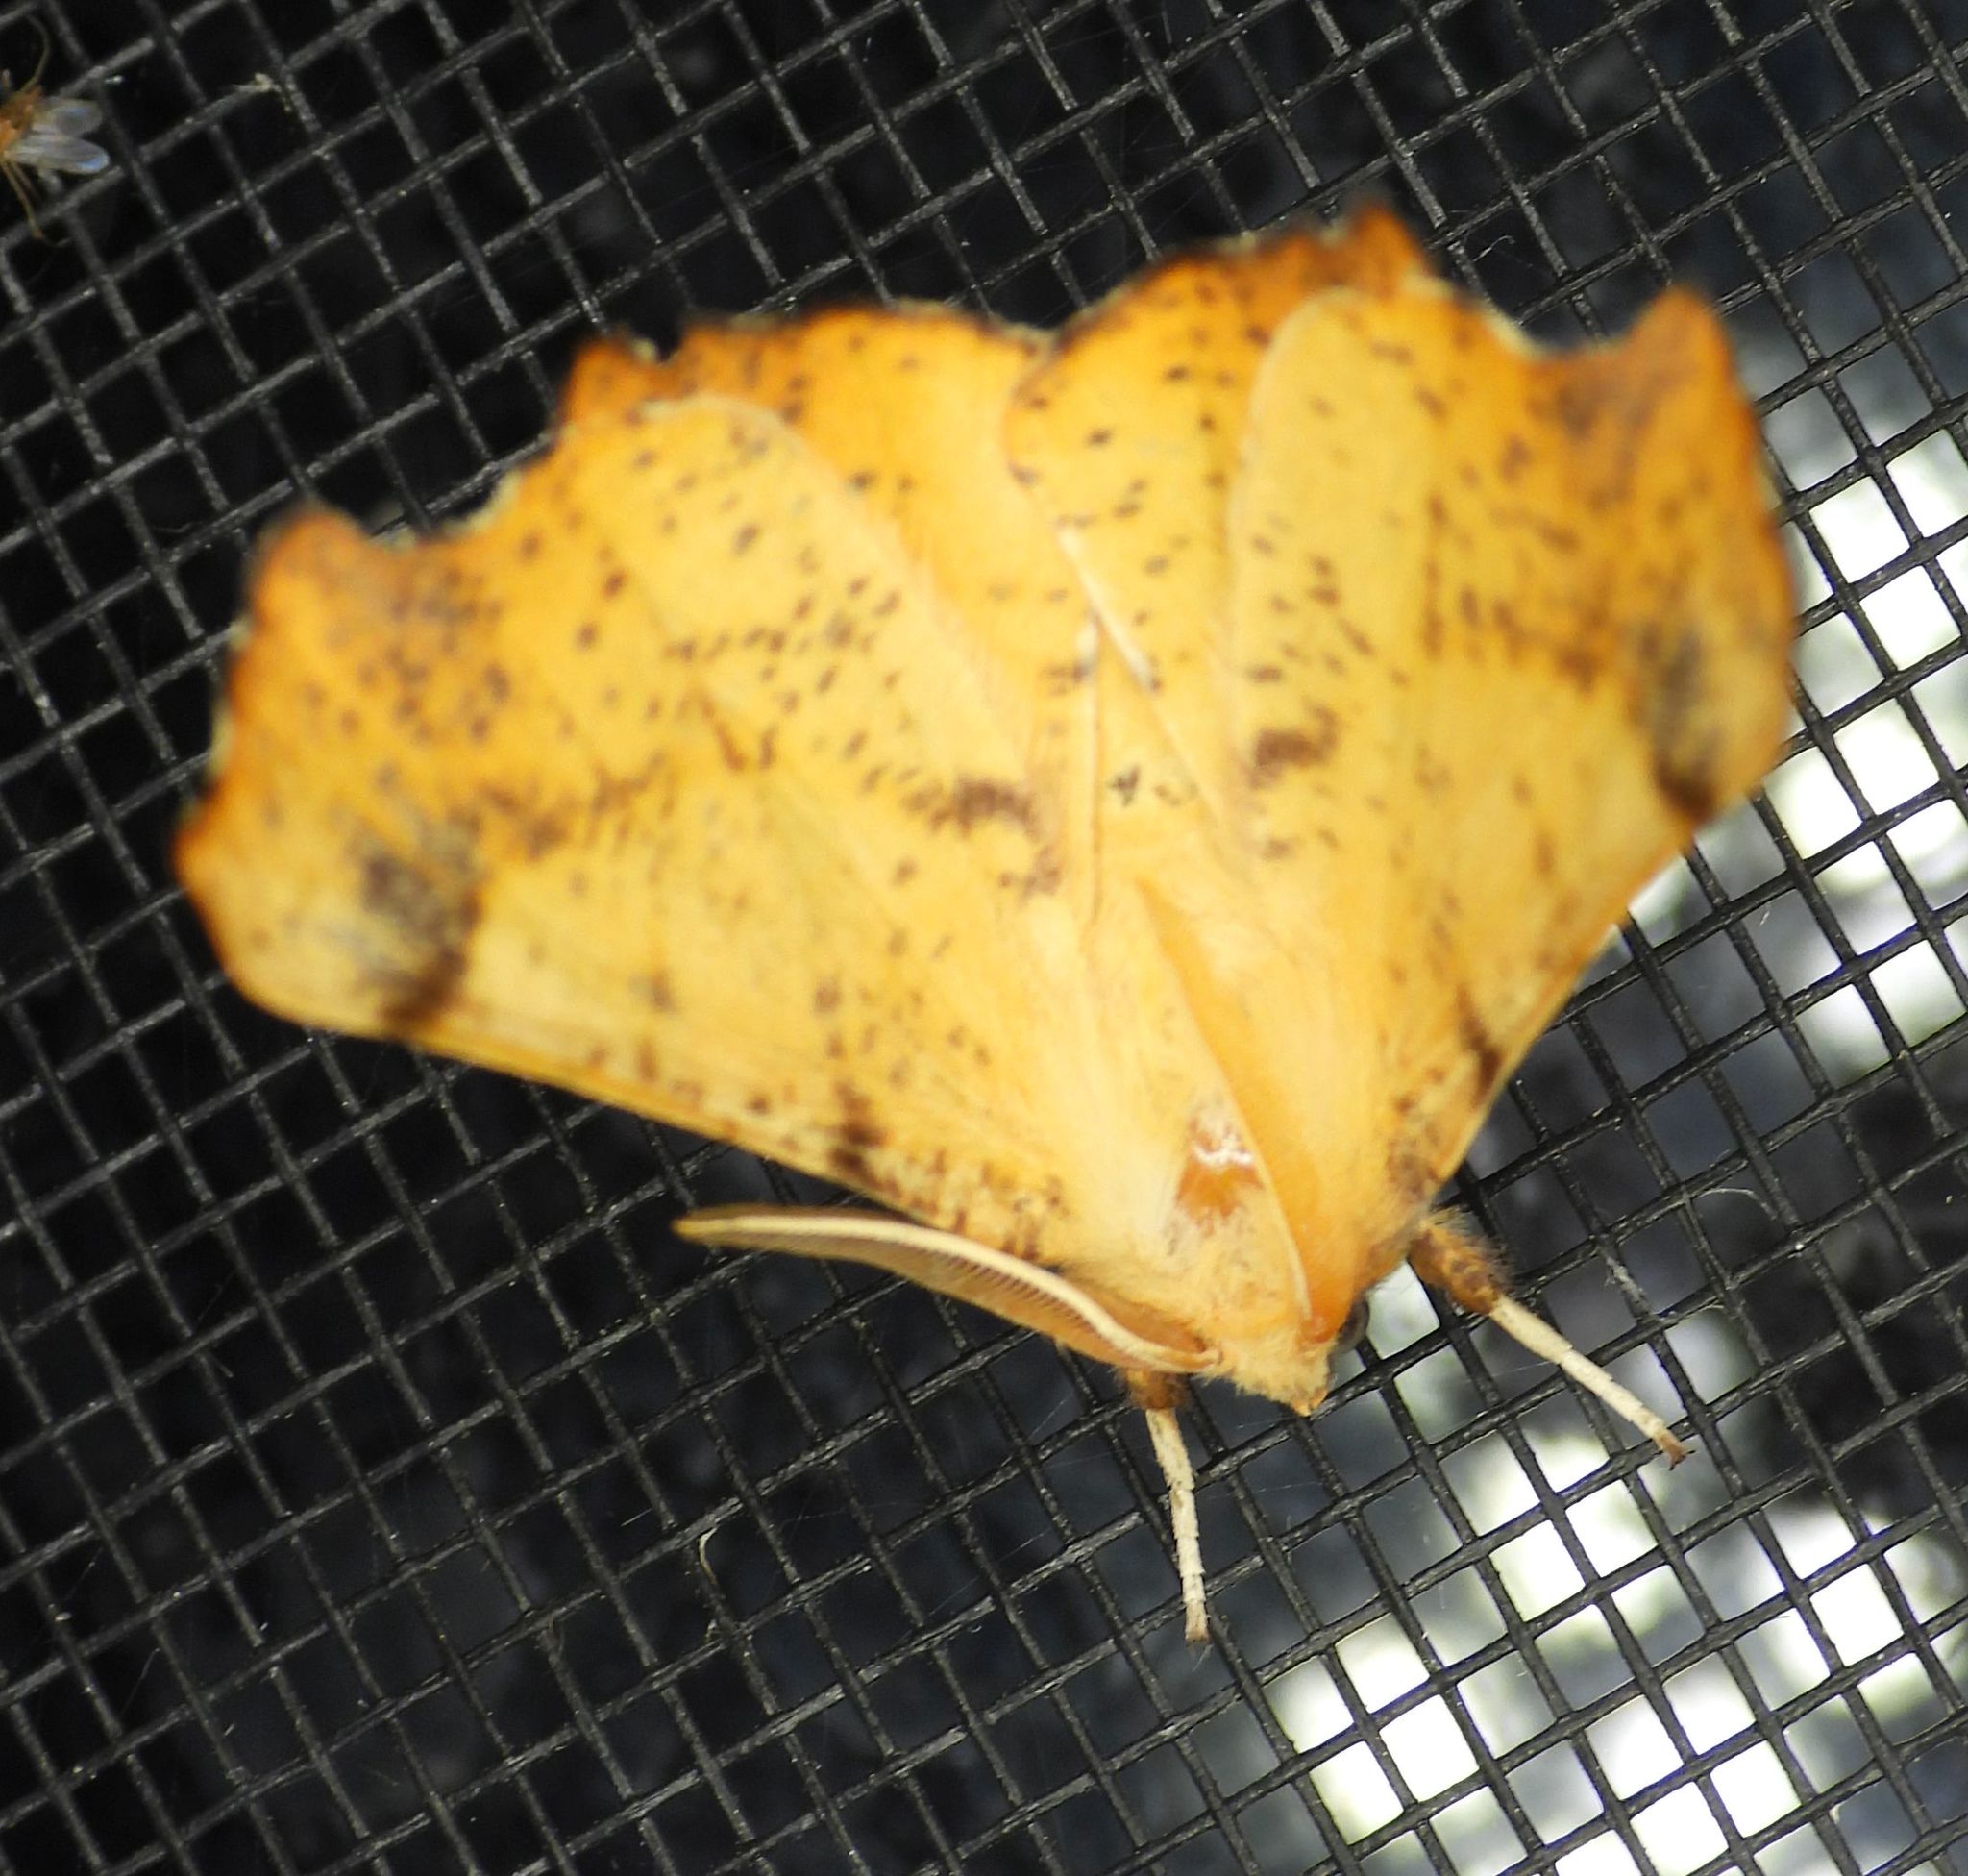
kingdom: Animalia
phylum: Arthropoda
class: Insecta
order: Lepidoptera
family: Geometridae
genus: Ennomos
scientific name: Ennomos magnaria
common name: Maple spanworm
